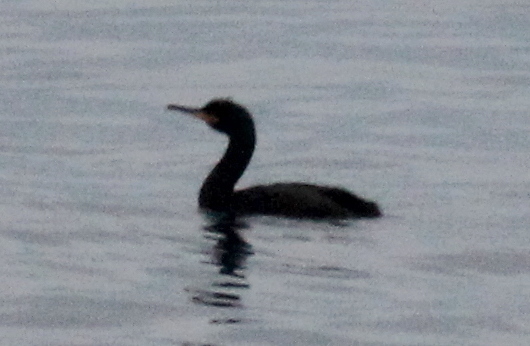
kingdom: Animalia
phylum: Chordata
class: Aves
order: Suliformes
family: Phalacrocoracidae
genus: Phalacrocorax
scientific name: Phalacrocorax aristotelis
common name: European shag
